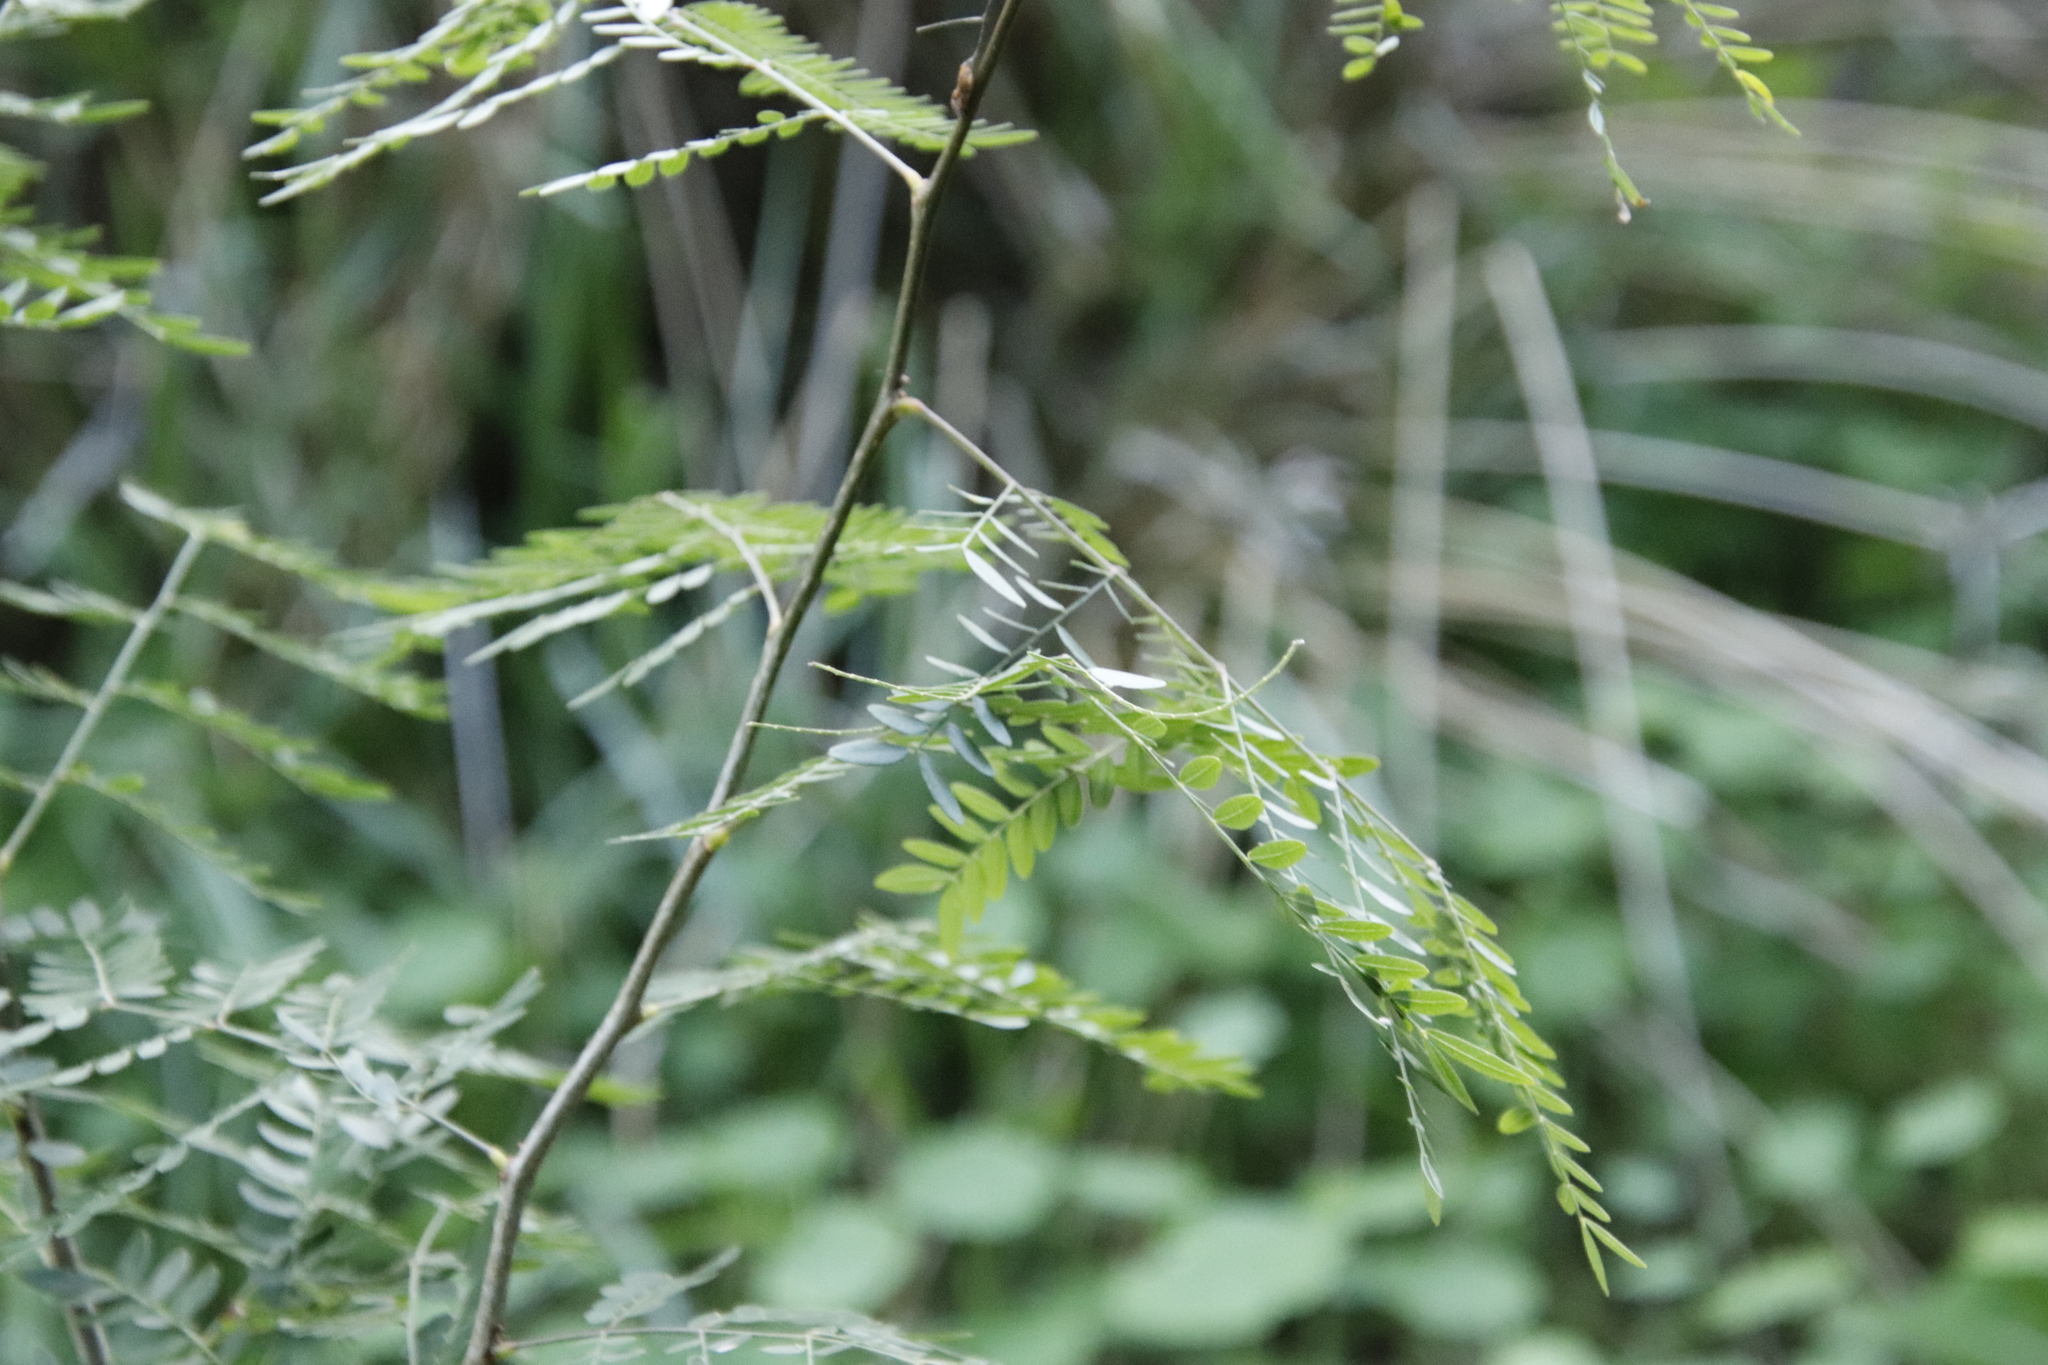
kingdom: Plantae
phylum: Tracheophyta
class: Magnoliopsida
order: Fabales
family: Fabaceae
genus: Paraserianthes
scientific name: Paraserianthes lophantha
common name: Plume albizia
